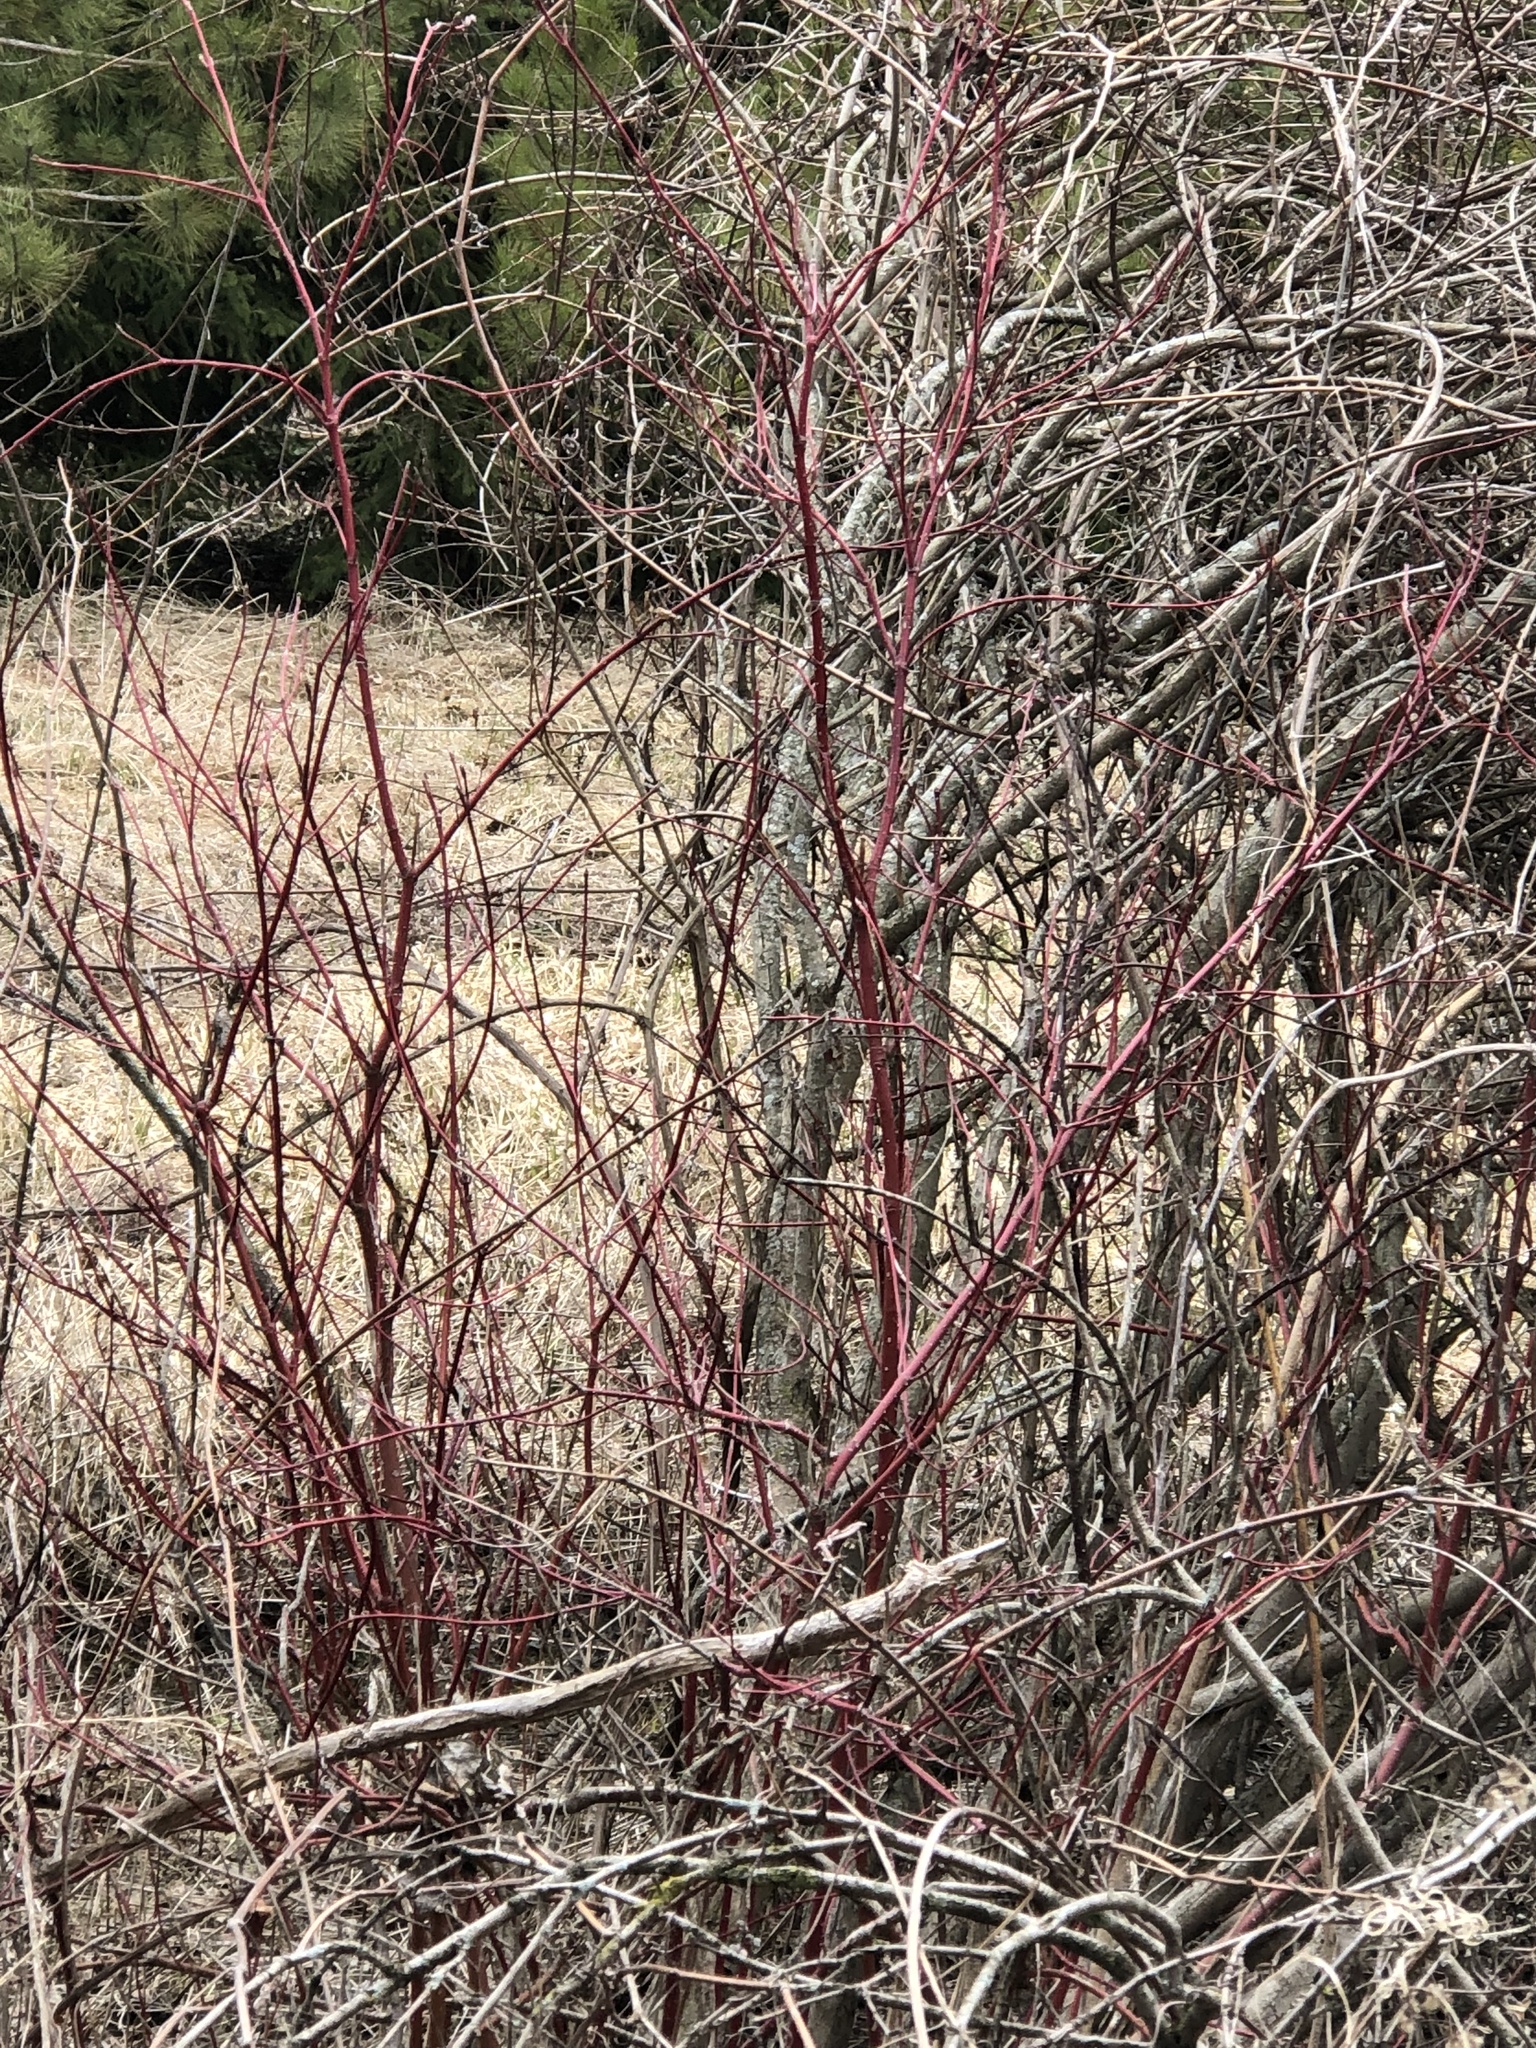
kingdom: Plantae
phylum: Tracheophyta
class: Magnoliopsida
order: Cornales
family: Cornaceae
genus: Cornus
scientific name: Cornus sericea
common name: Red-osier dogwood
